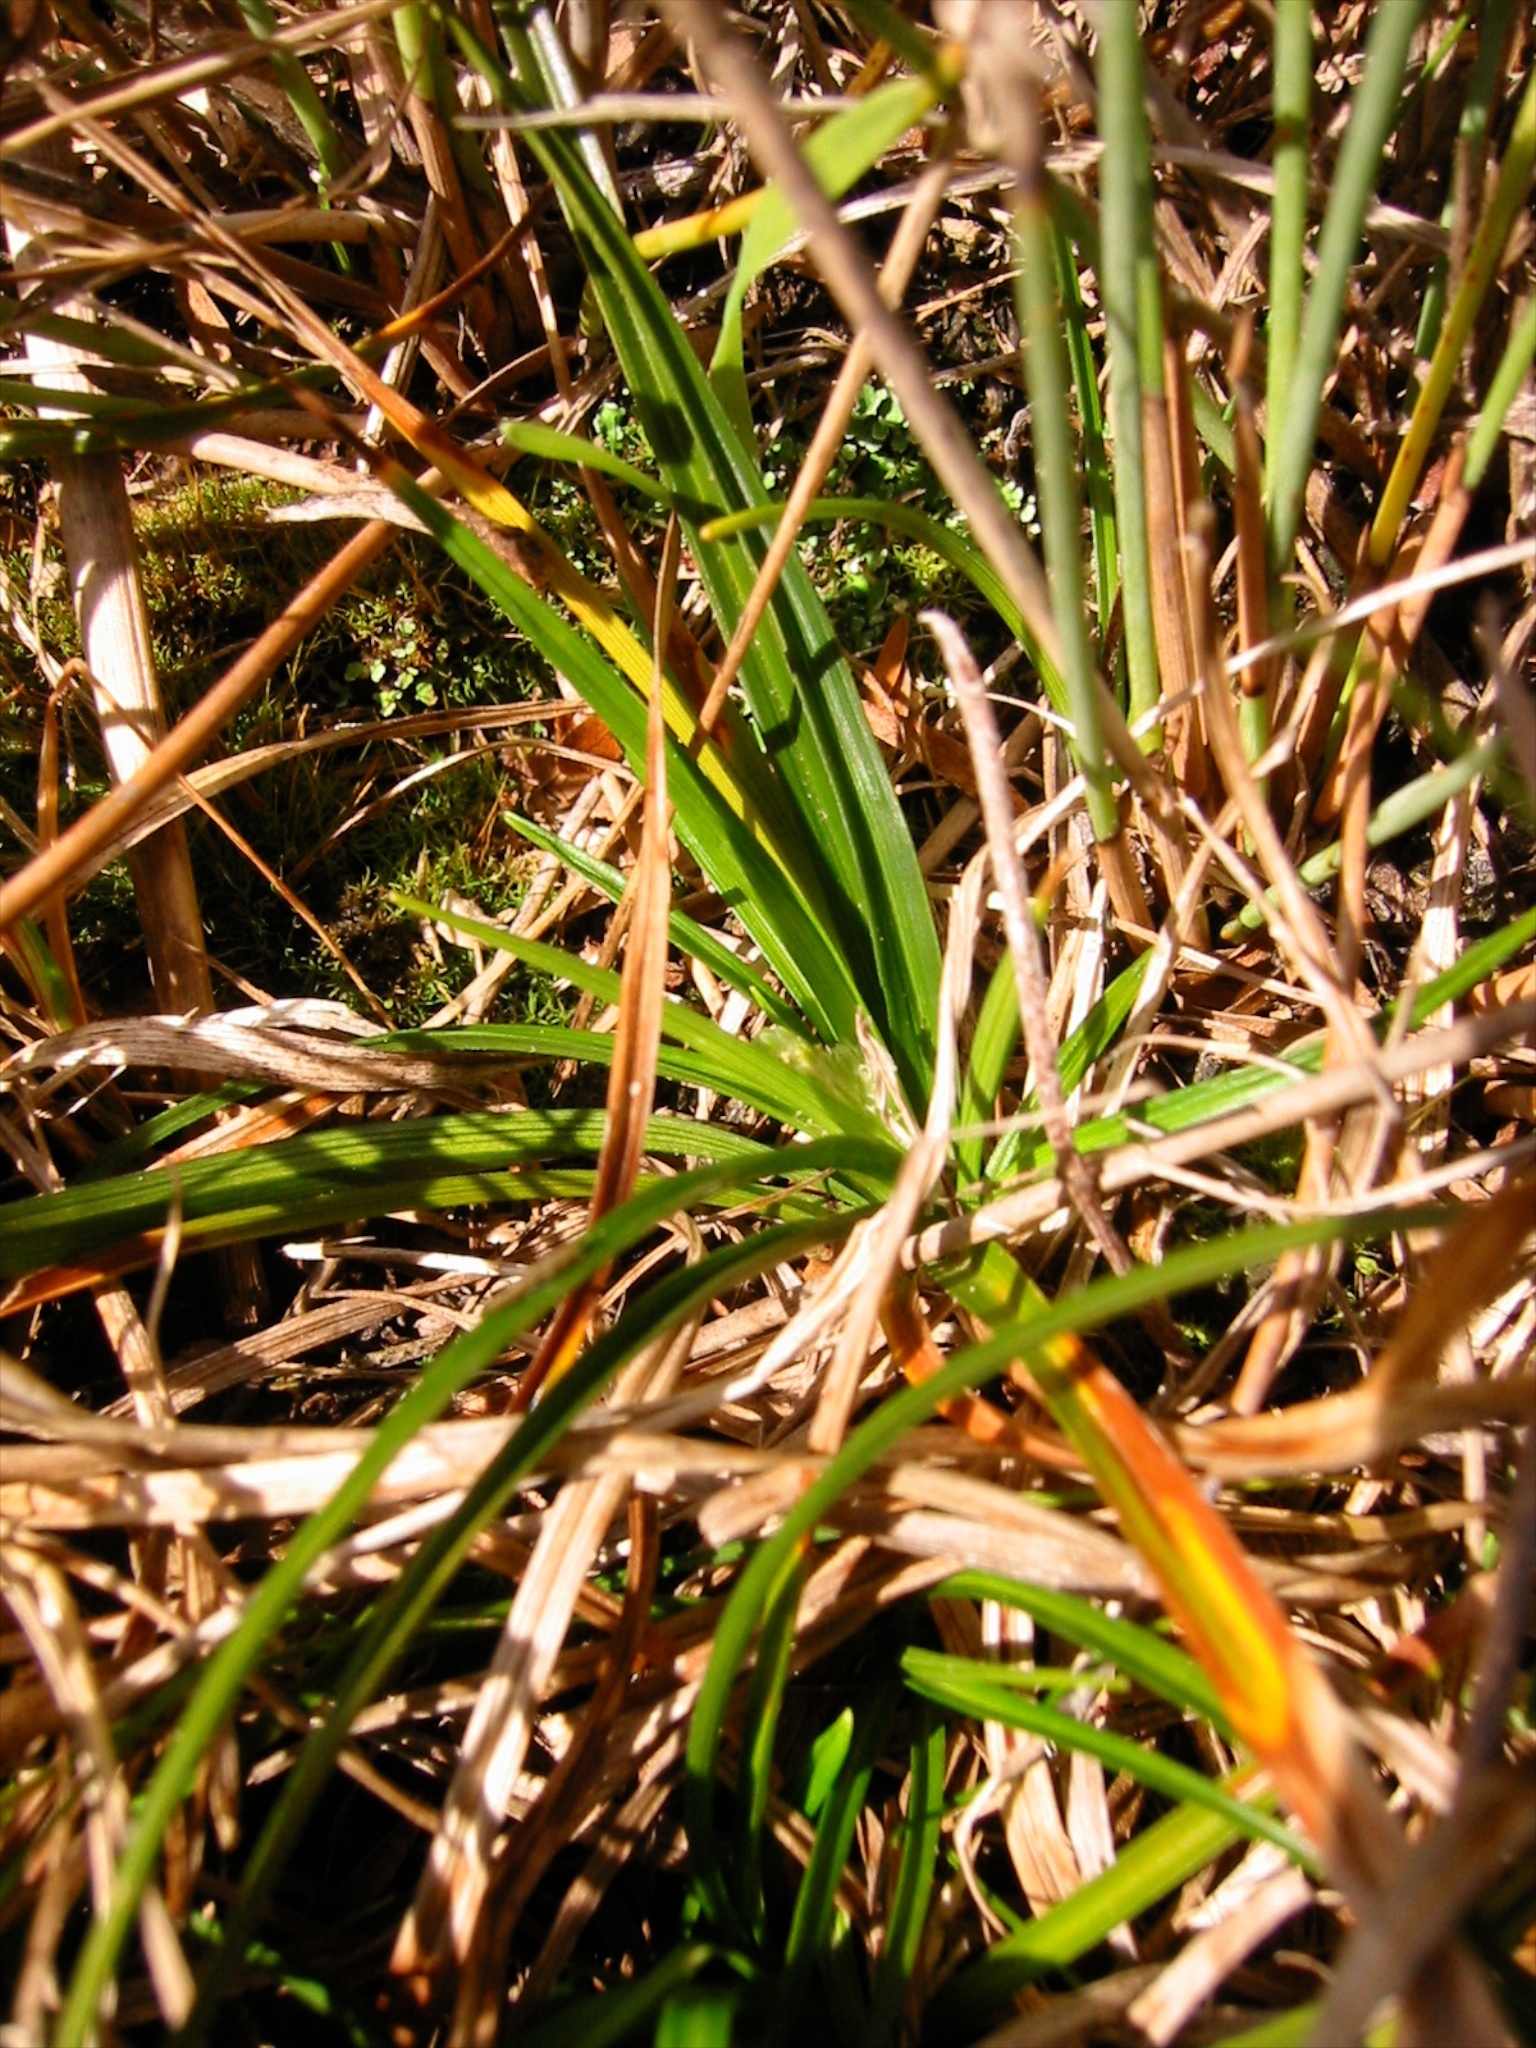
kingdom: Plantae
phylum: Tracheophyta
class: Liliopsida
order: Poales
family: Cyperaceae
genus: Carex
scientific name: Carex breviculmis
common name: Asian shortstem sedge
